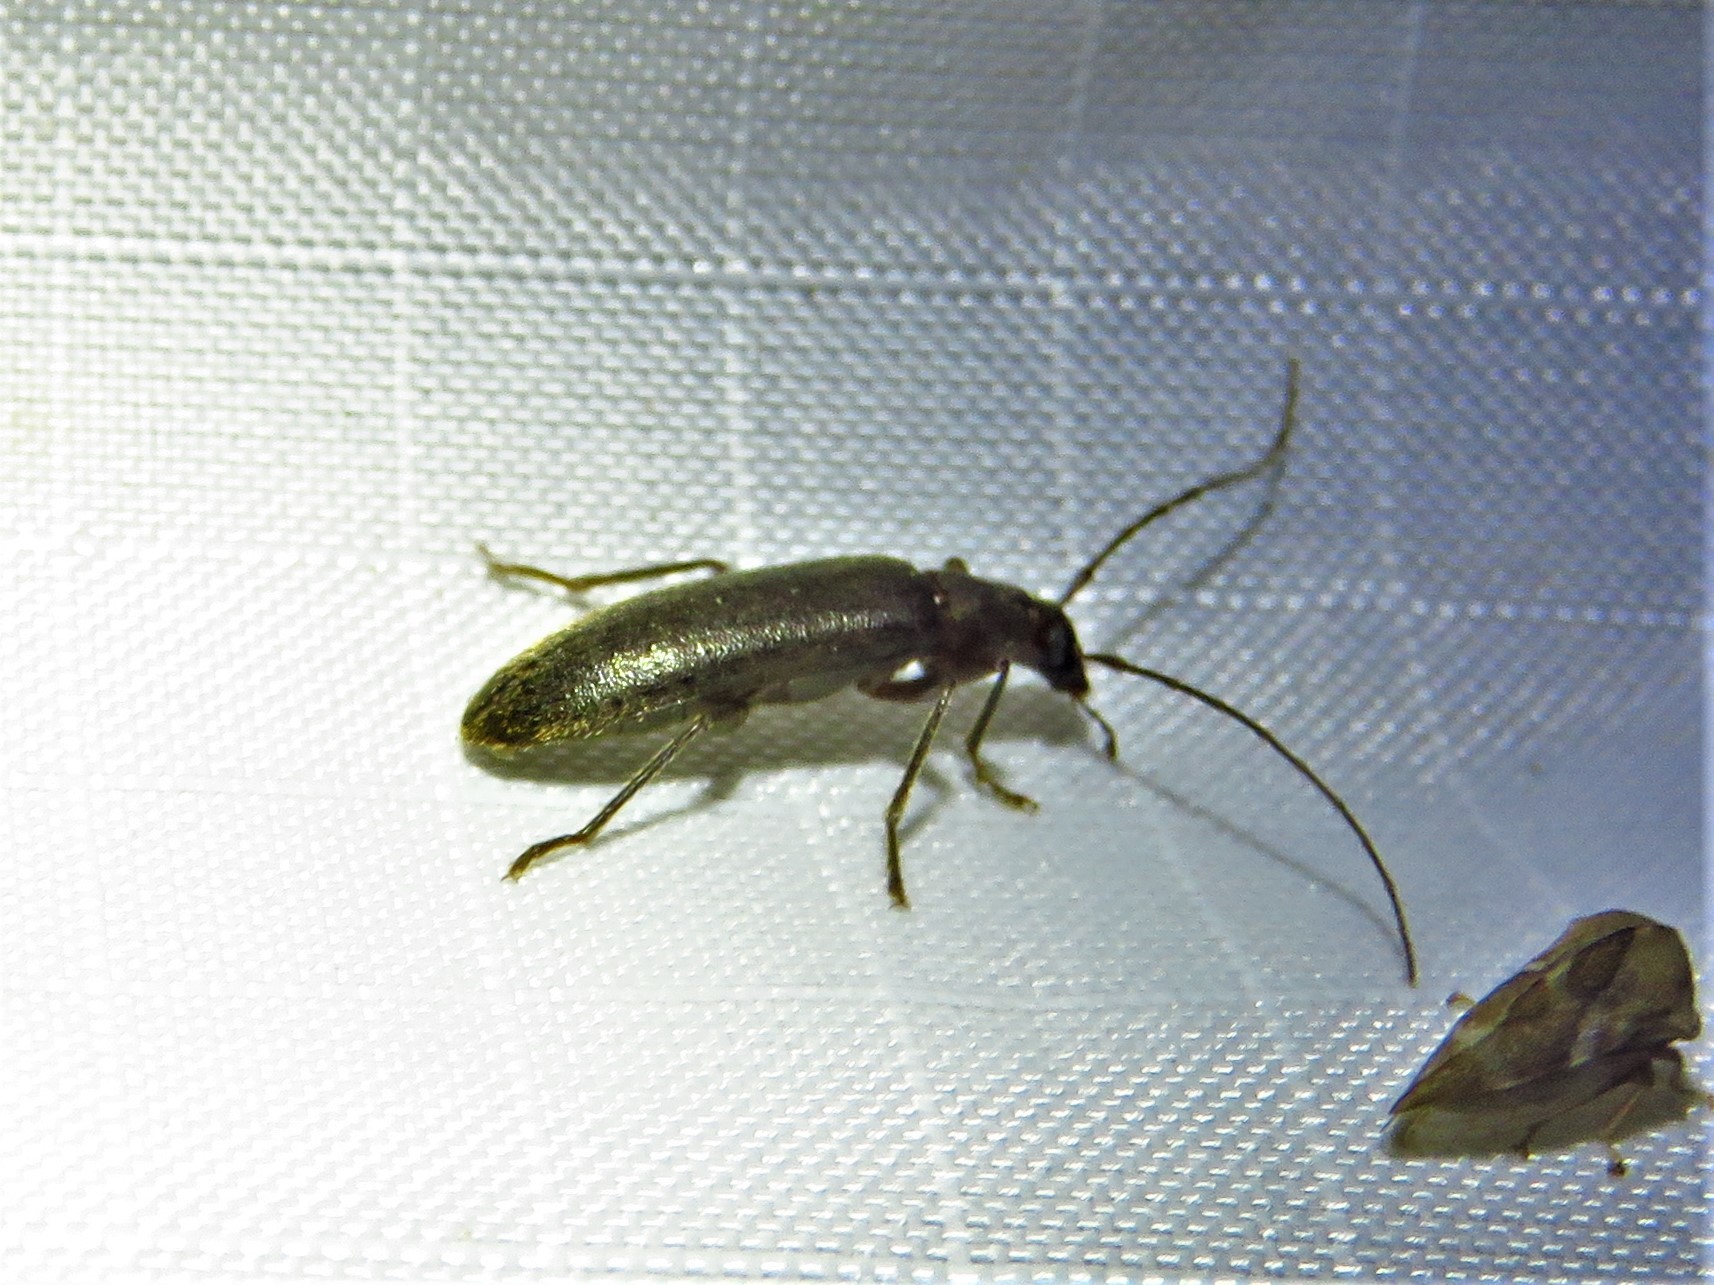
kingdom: Animalia
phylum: Arthropoda
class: Insecta
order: Coleoptera
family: Oedemeridae
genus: Sparedrus
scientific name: Sparedrus aspersus
